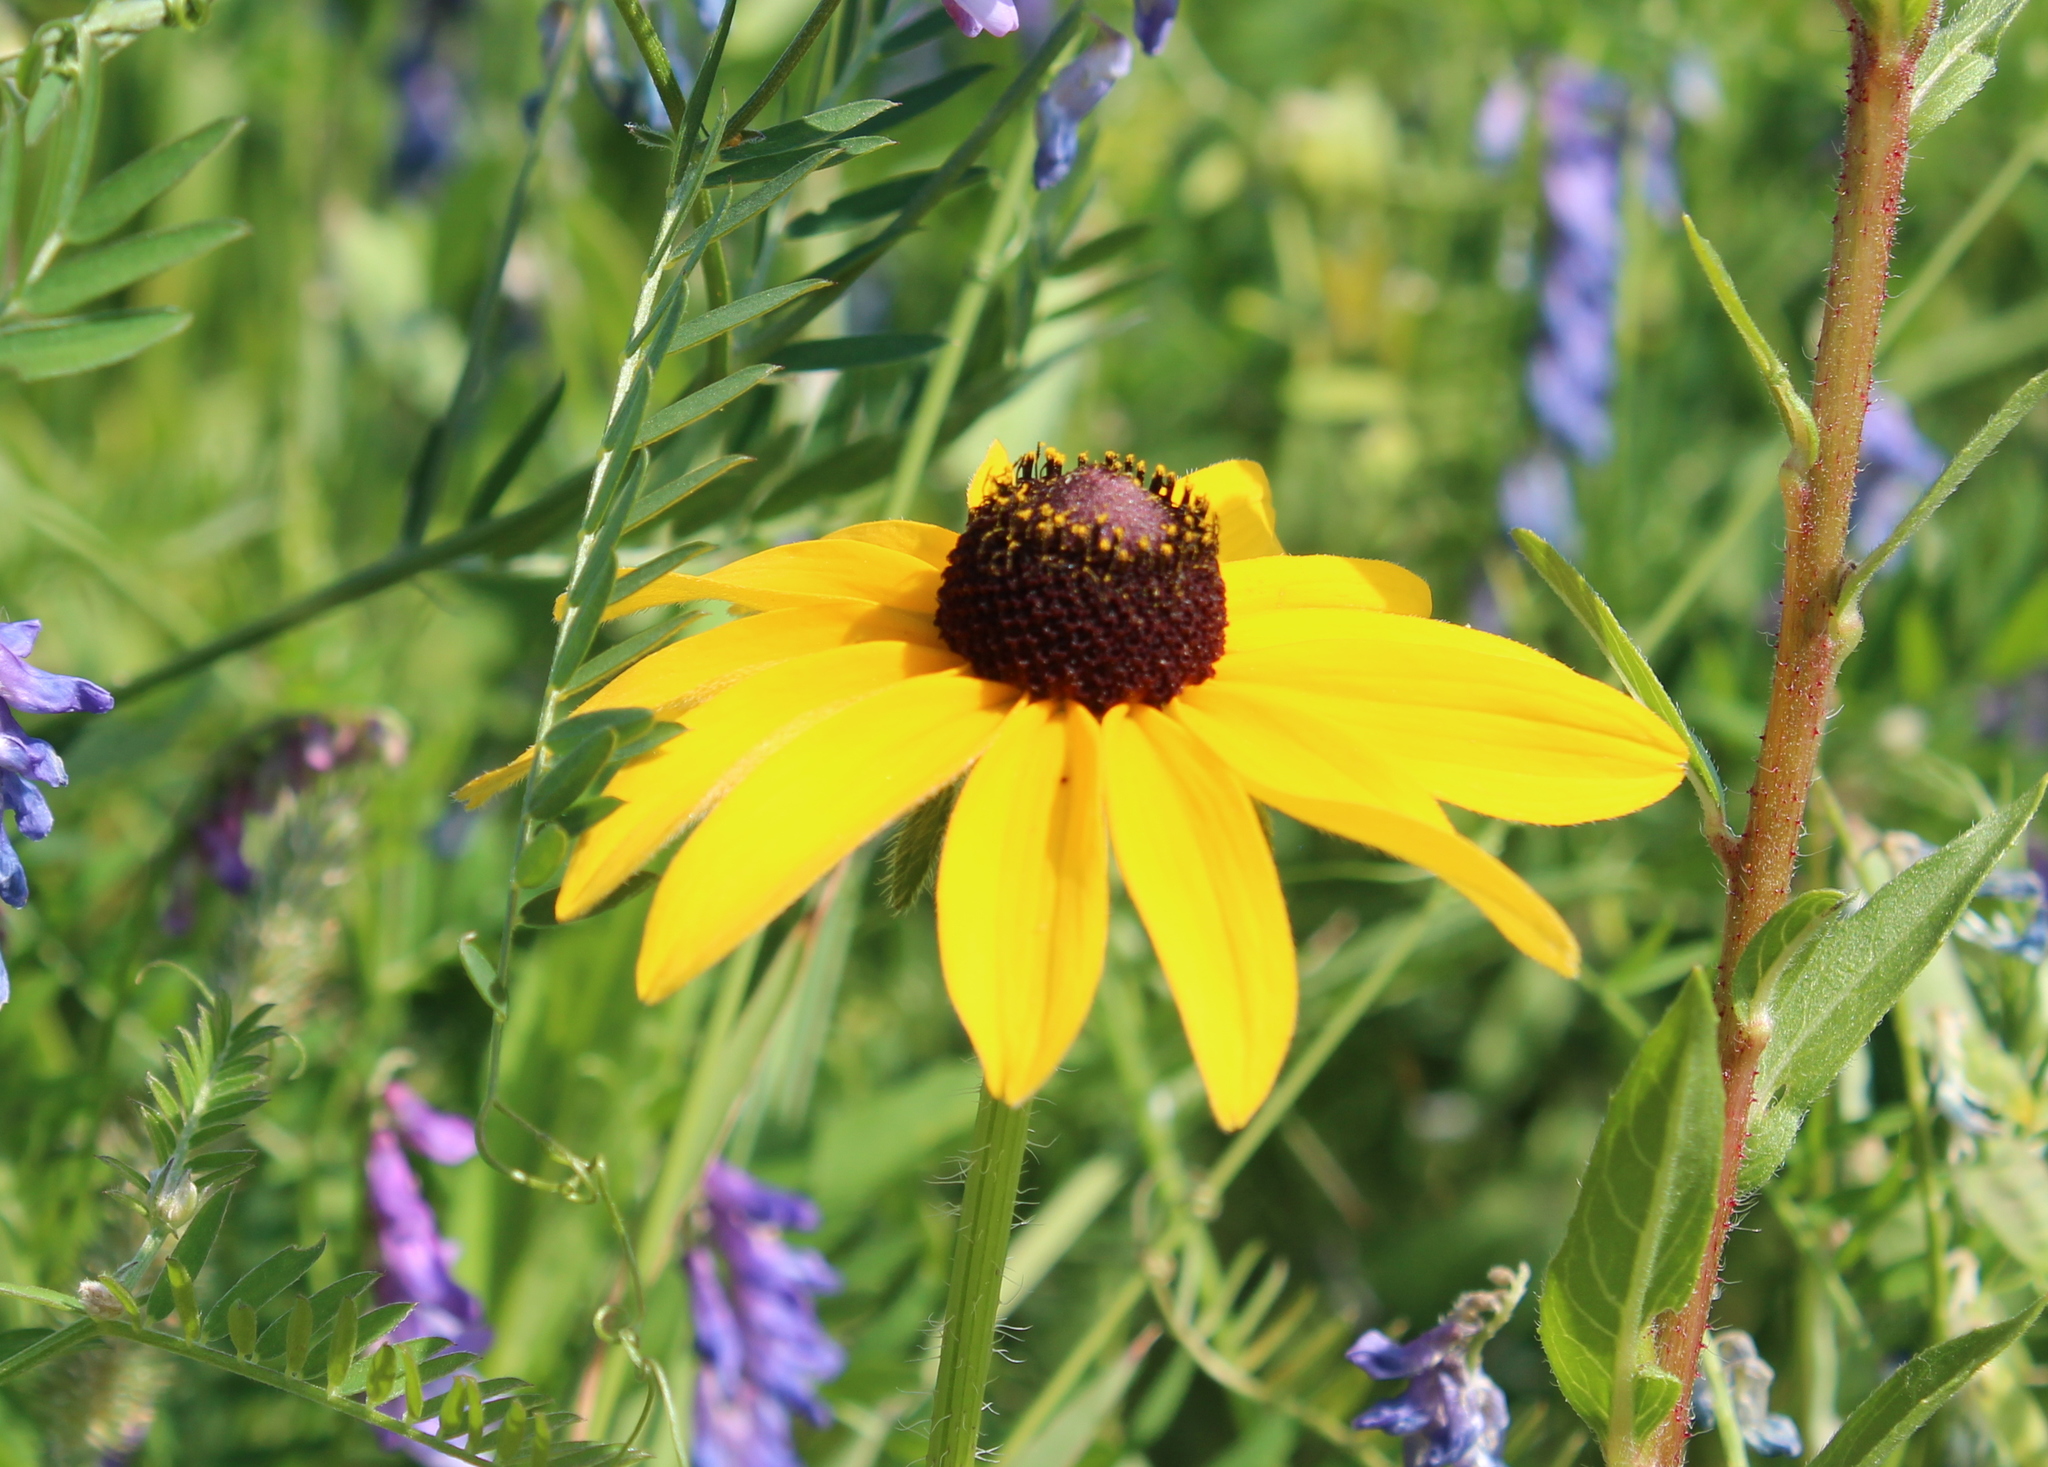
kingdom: Plantae
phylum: Tracheophyta
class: Magnoliopsida
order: Asterales
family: Asteraceae
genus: Rudbeckia
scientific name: Rudbeckia hirta
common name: Black-eyed-susan
